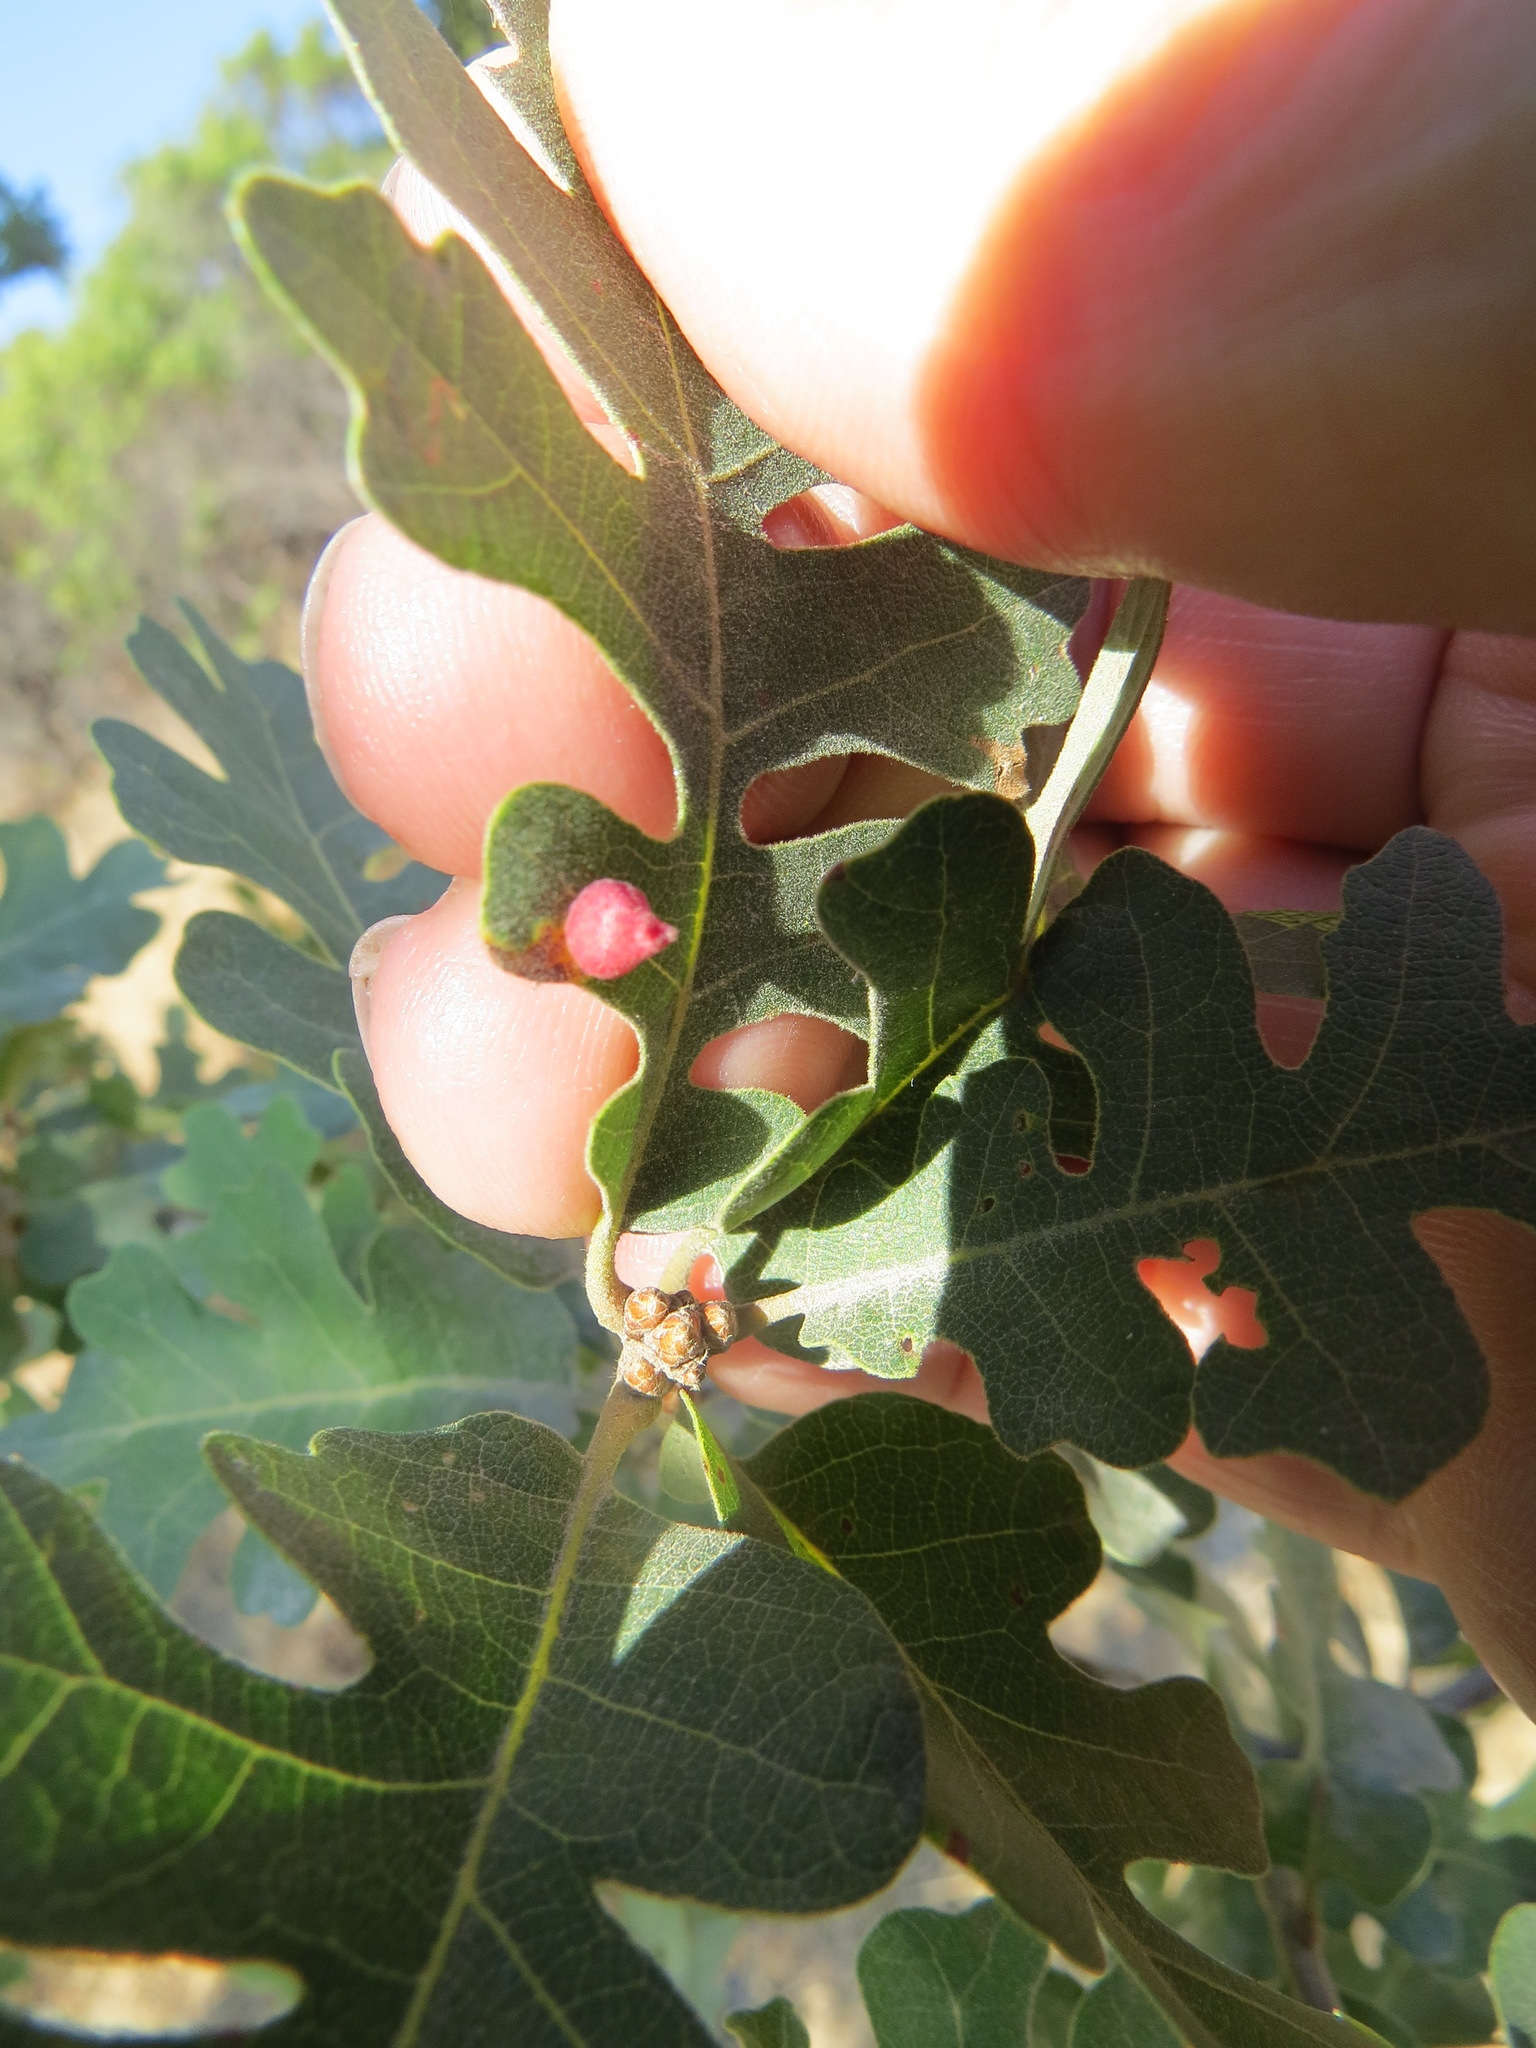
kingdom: Animalia
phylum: Arthropoda
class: Insecta
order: Hymenoptera
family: Cynipidae
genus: Andricus
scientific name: Andricus
